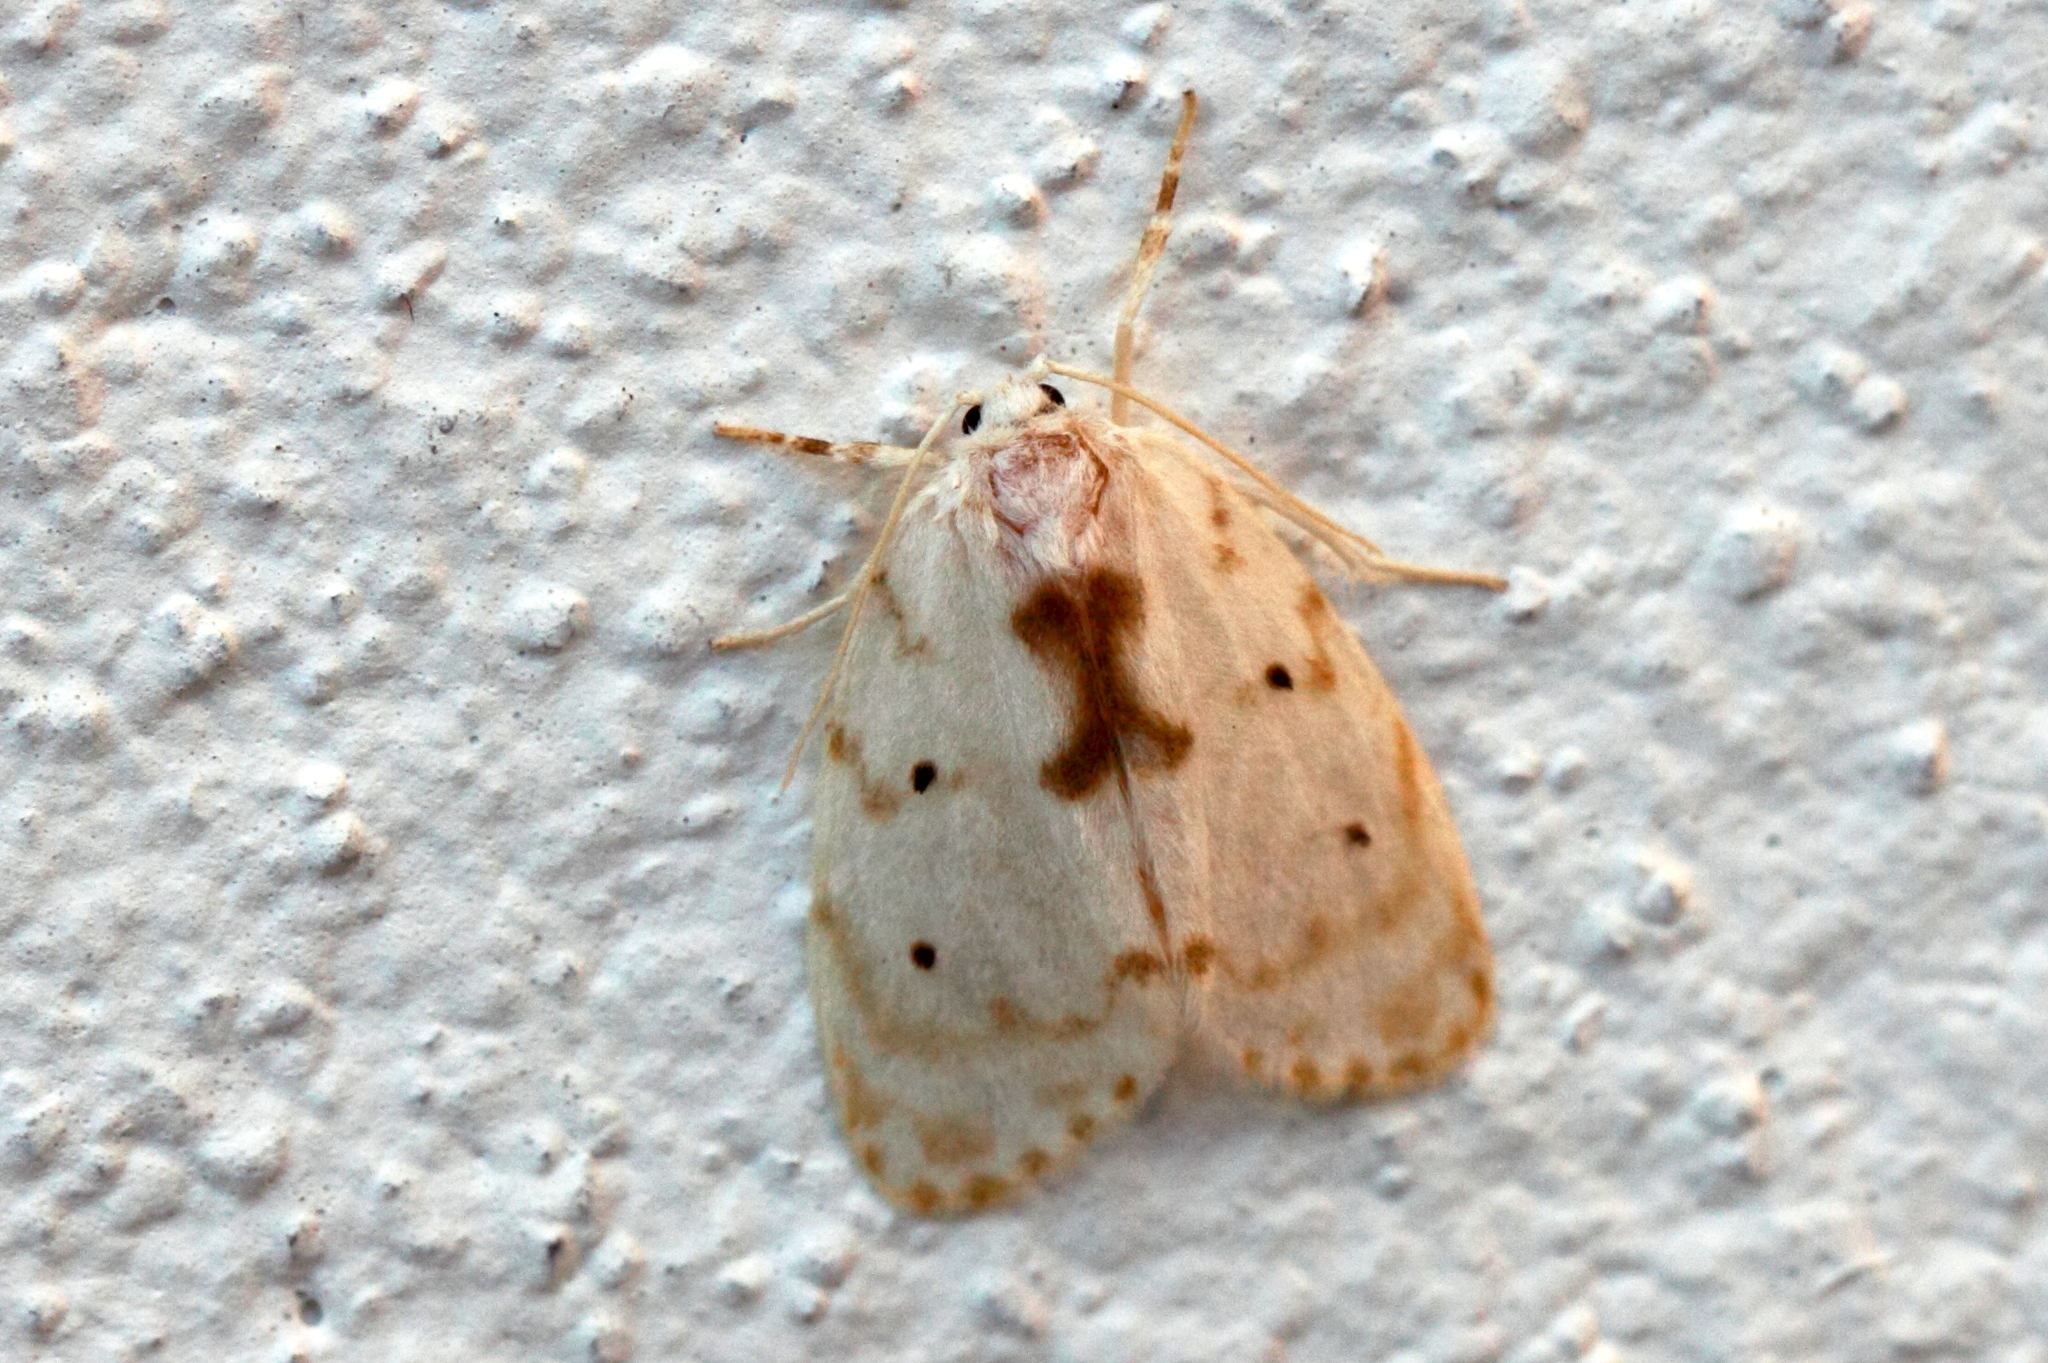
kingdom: Animalia
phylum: Arthropoda
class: Insecta
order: Lepidoptera
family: Erebidae
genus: Schistophleps
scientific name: Schistophleps albida
